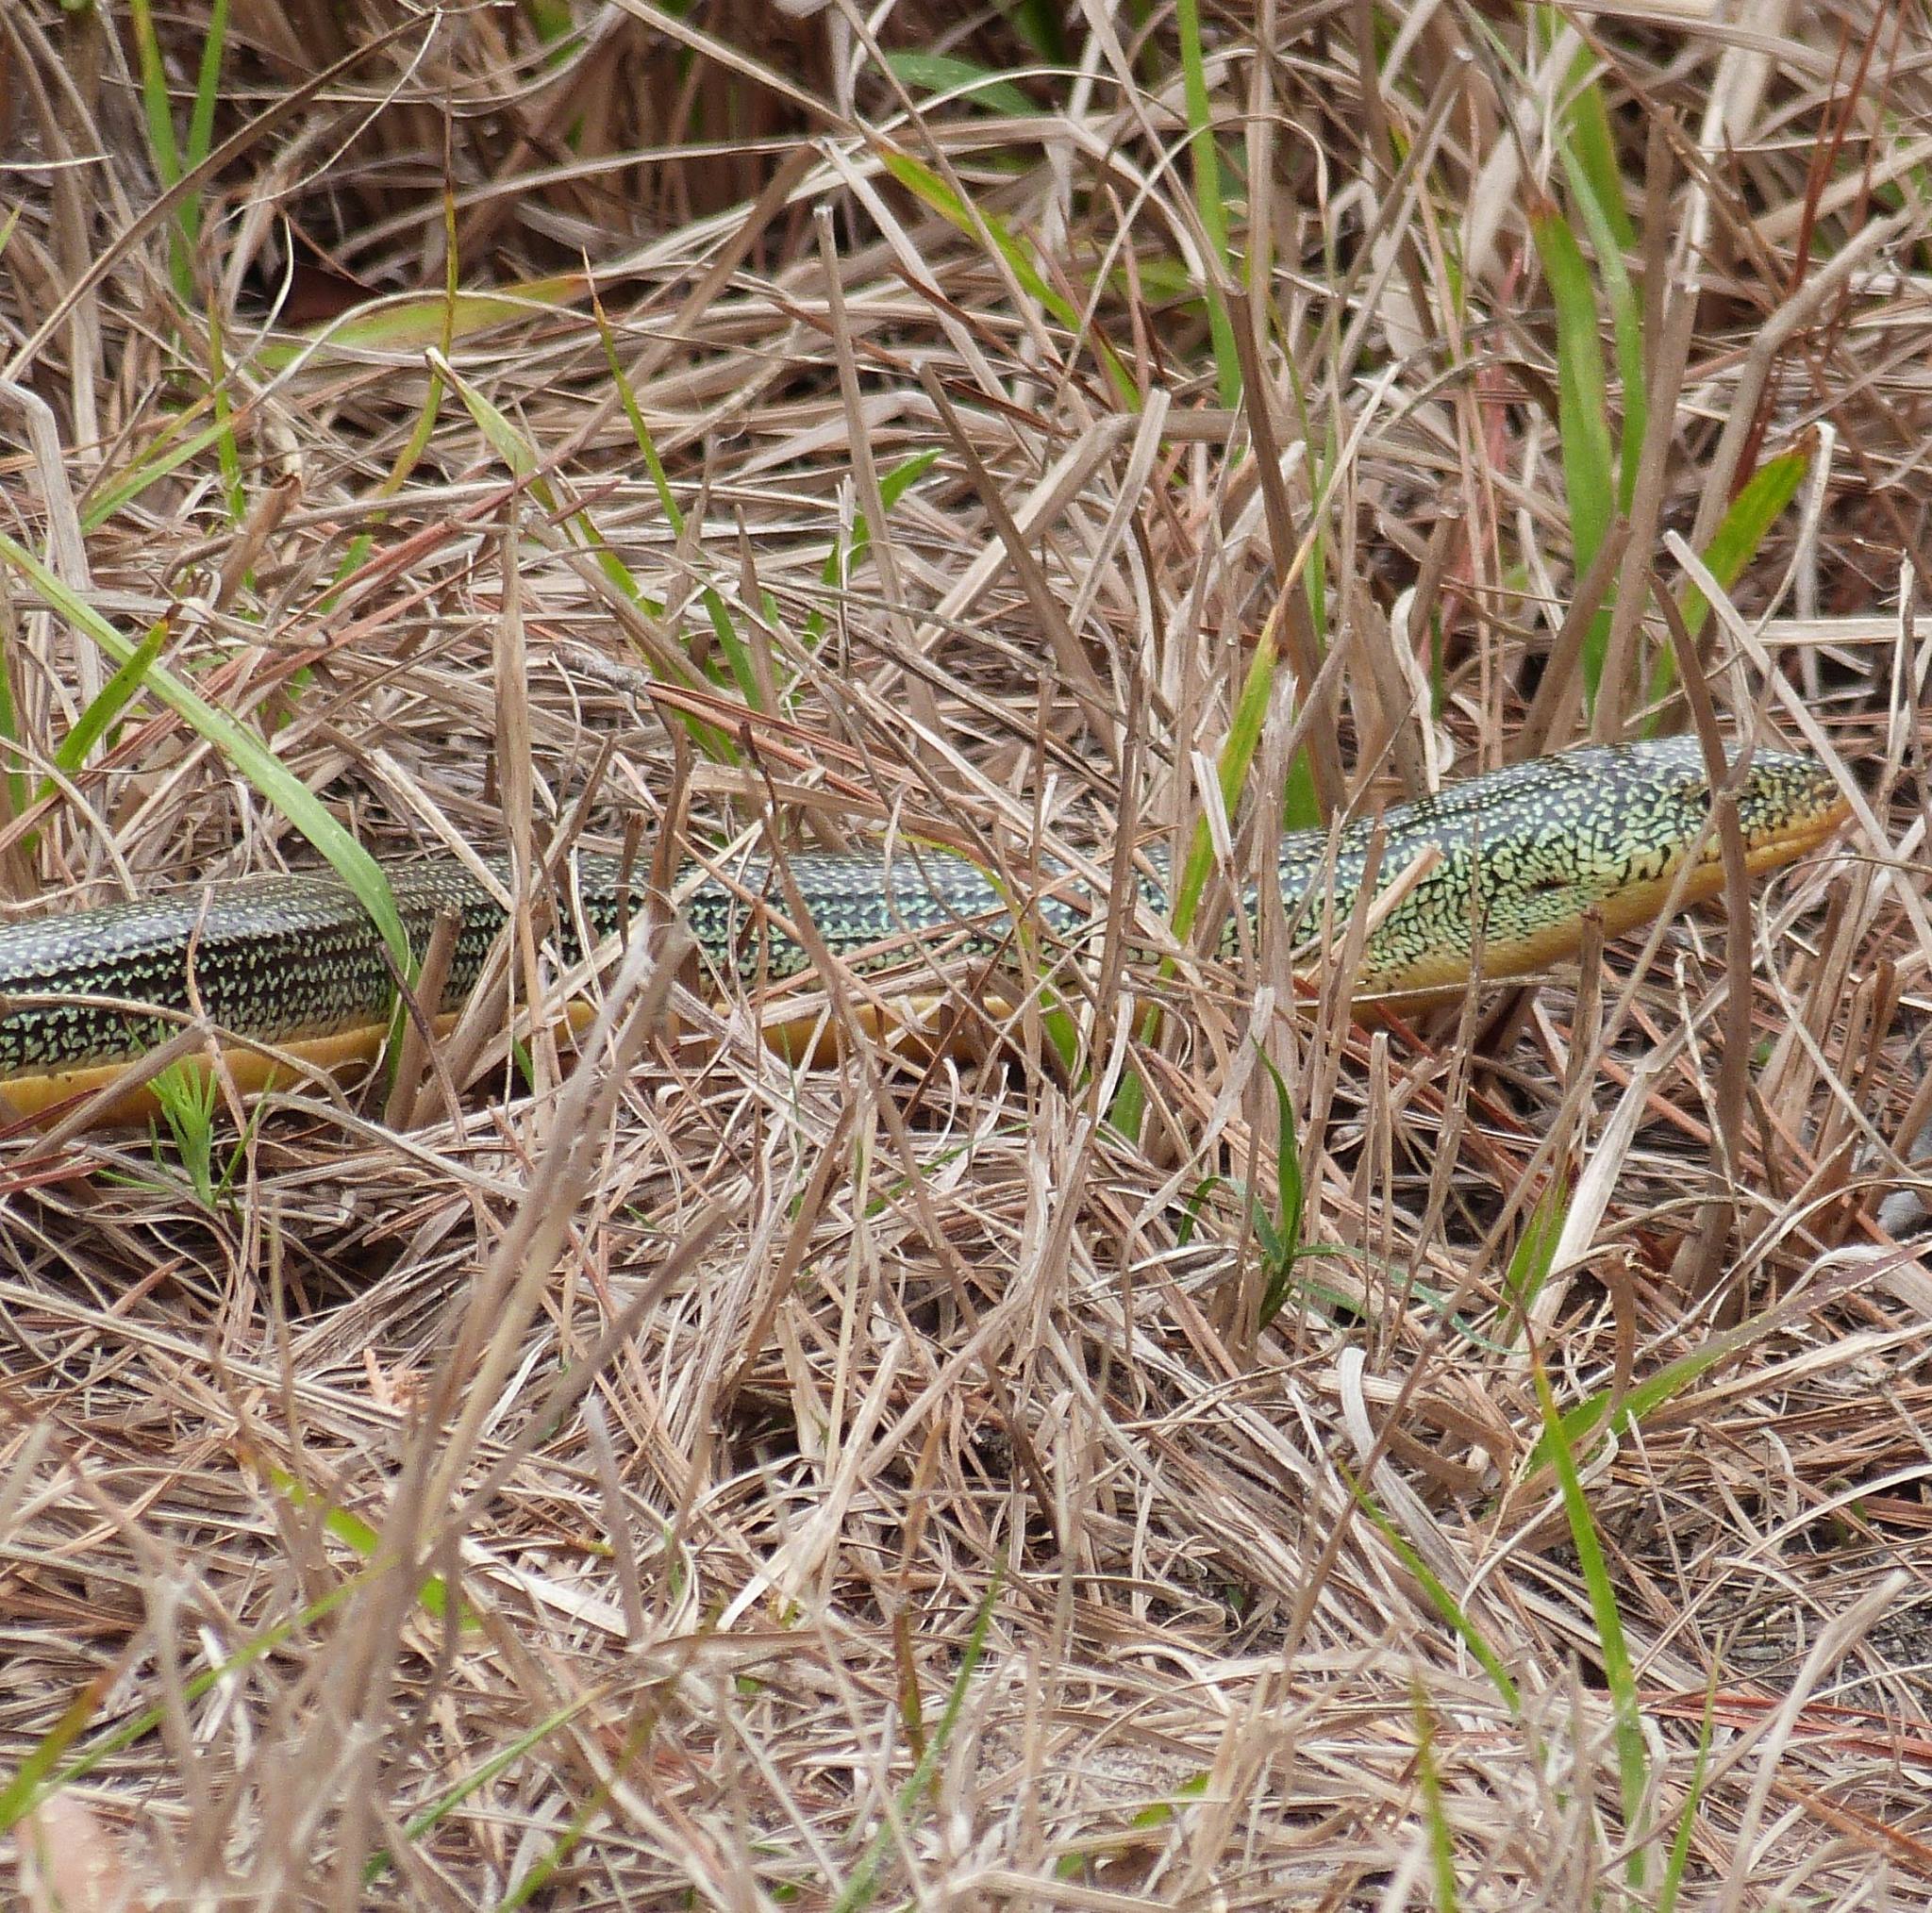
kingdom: Animalia
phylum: Chordata
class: Squamata
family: Anguidae
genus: Ophisaurus
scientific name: Ophisaurus ventralis
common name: Eastern glass lizard
